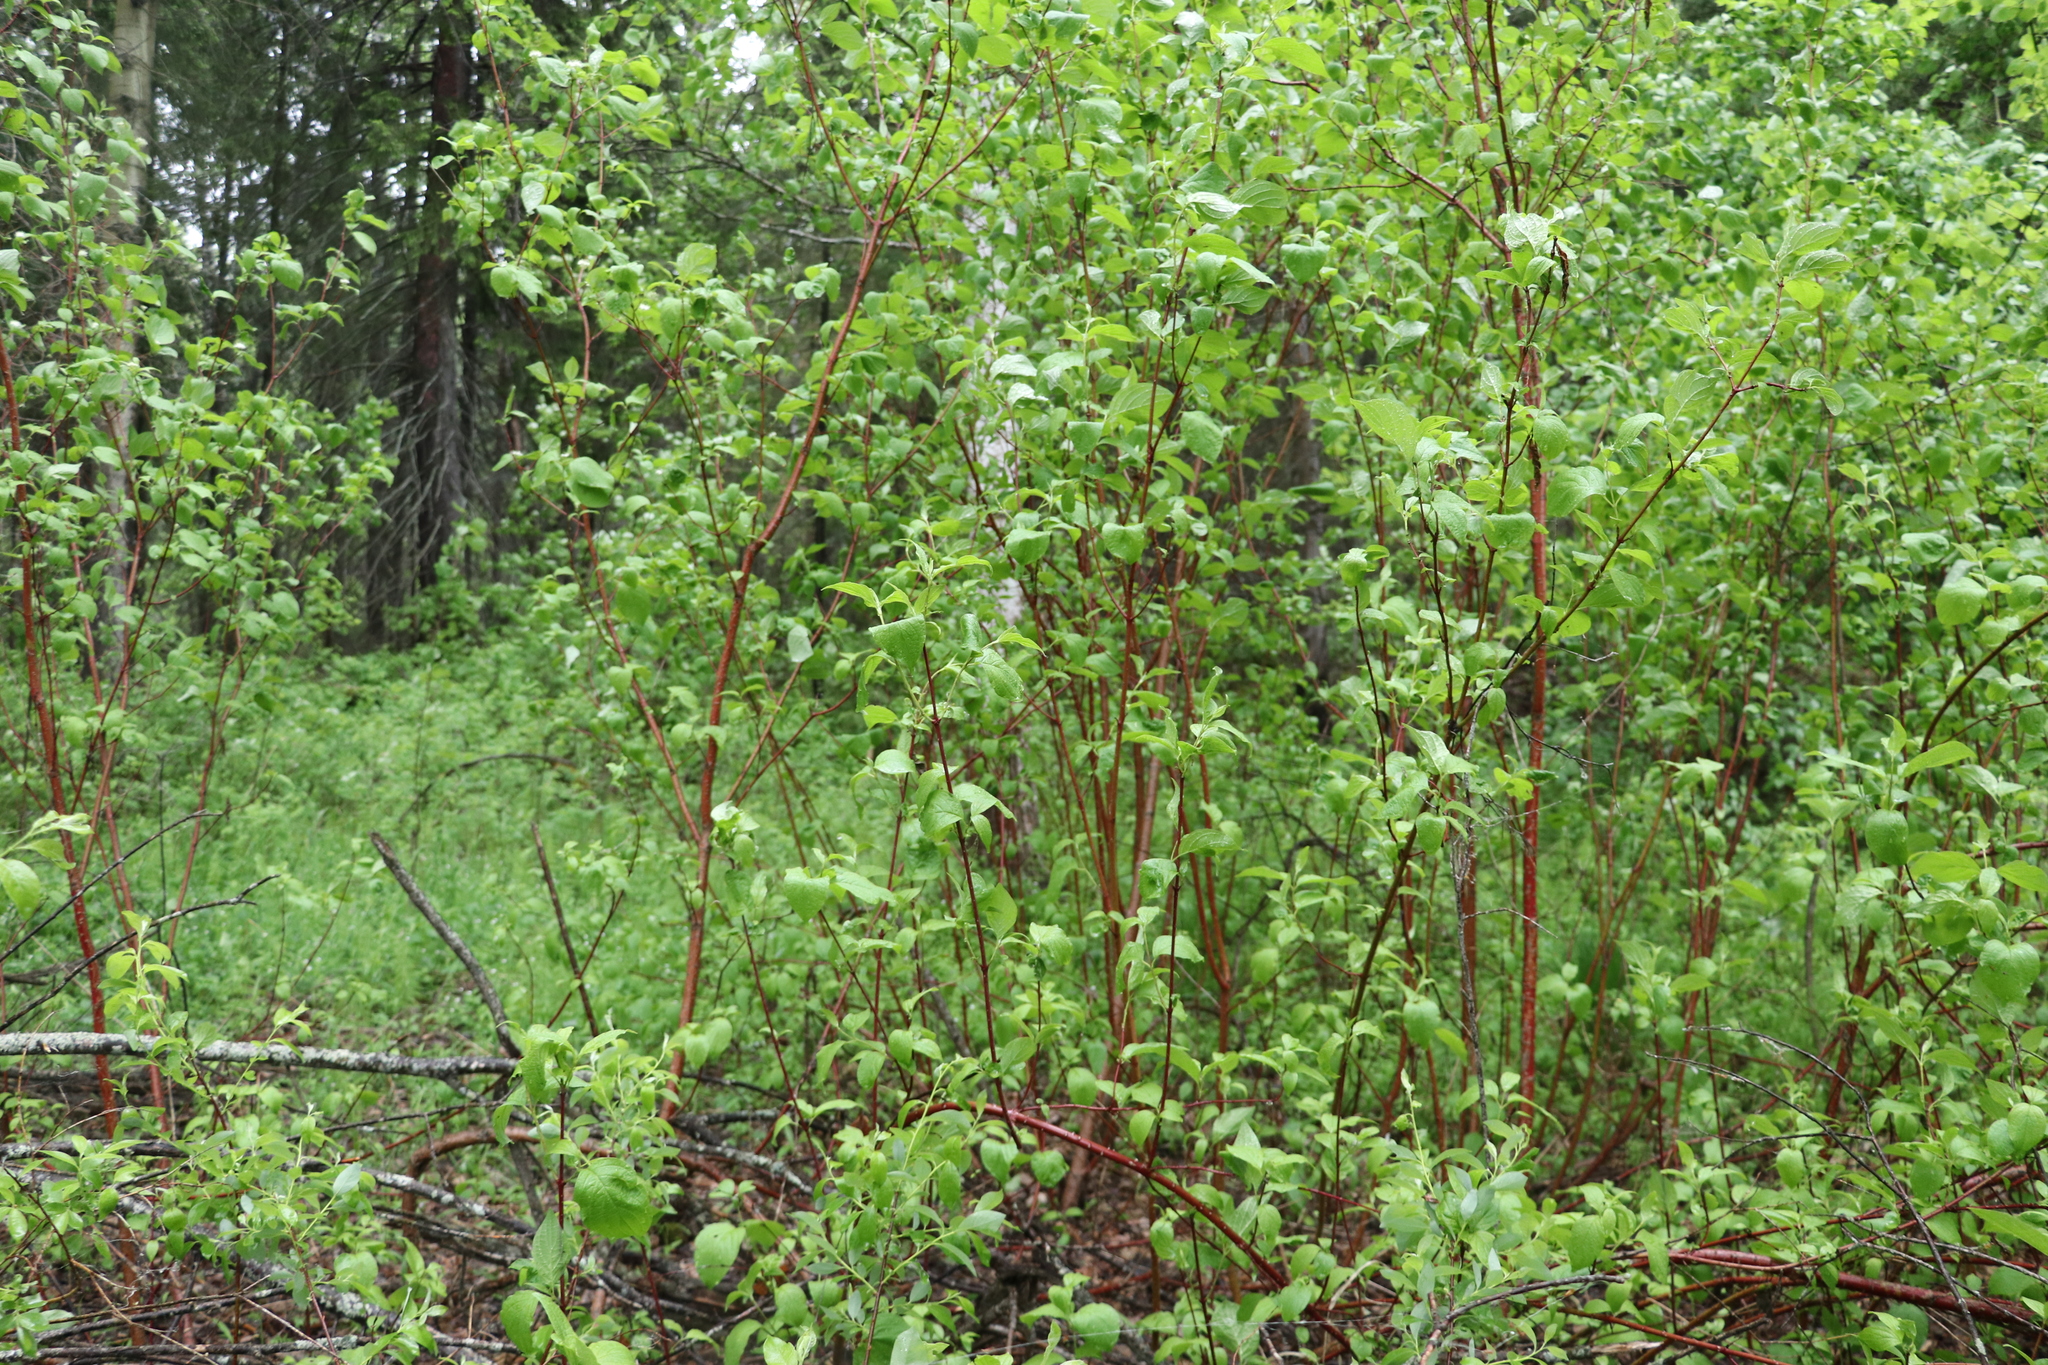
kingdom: Plantae
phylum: Tracheophyta
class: Magnoliopsida
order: Cornales
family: Cornaceae
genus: Cornus
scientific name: Cornus alba
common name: White dogwood
